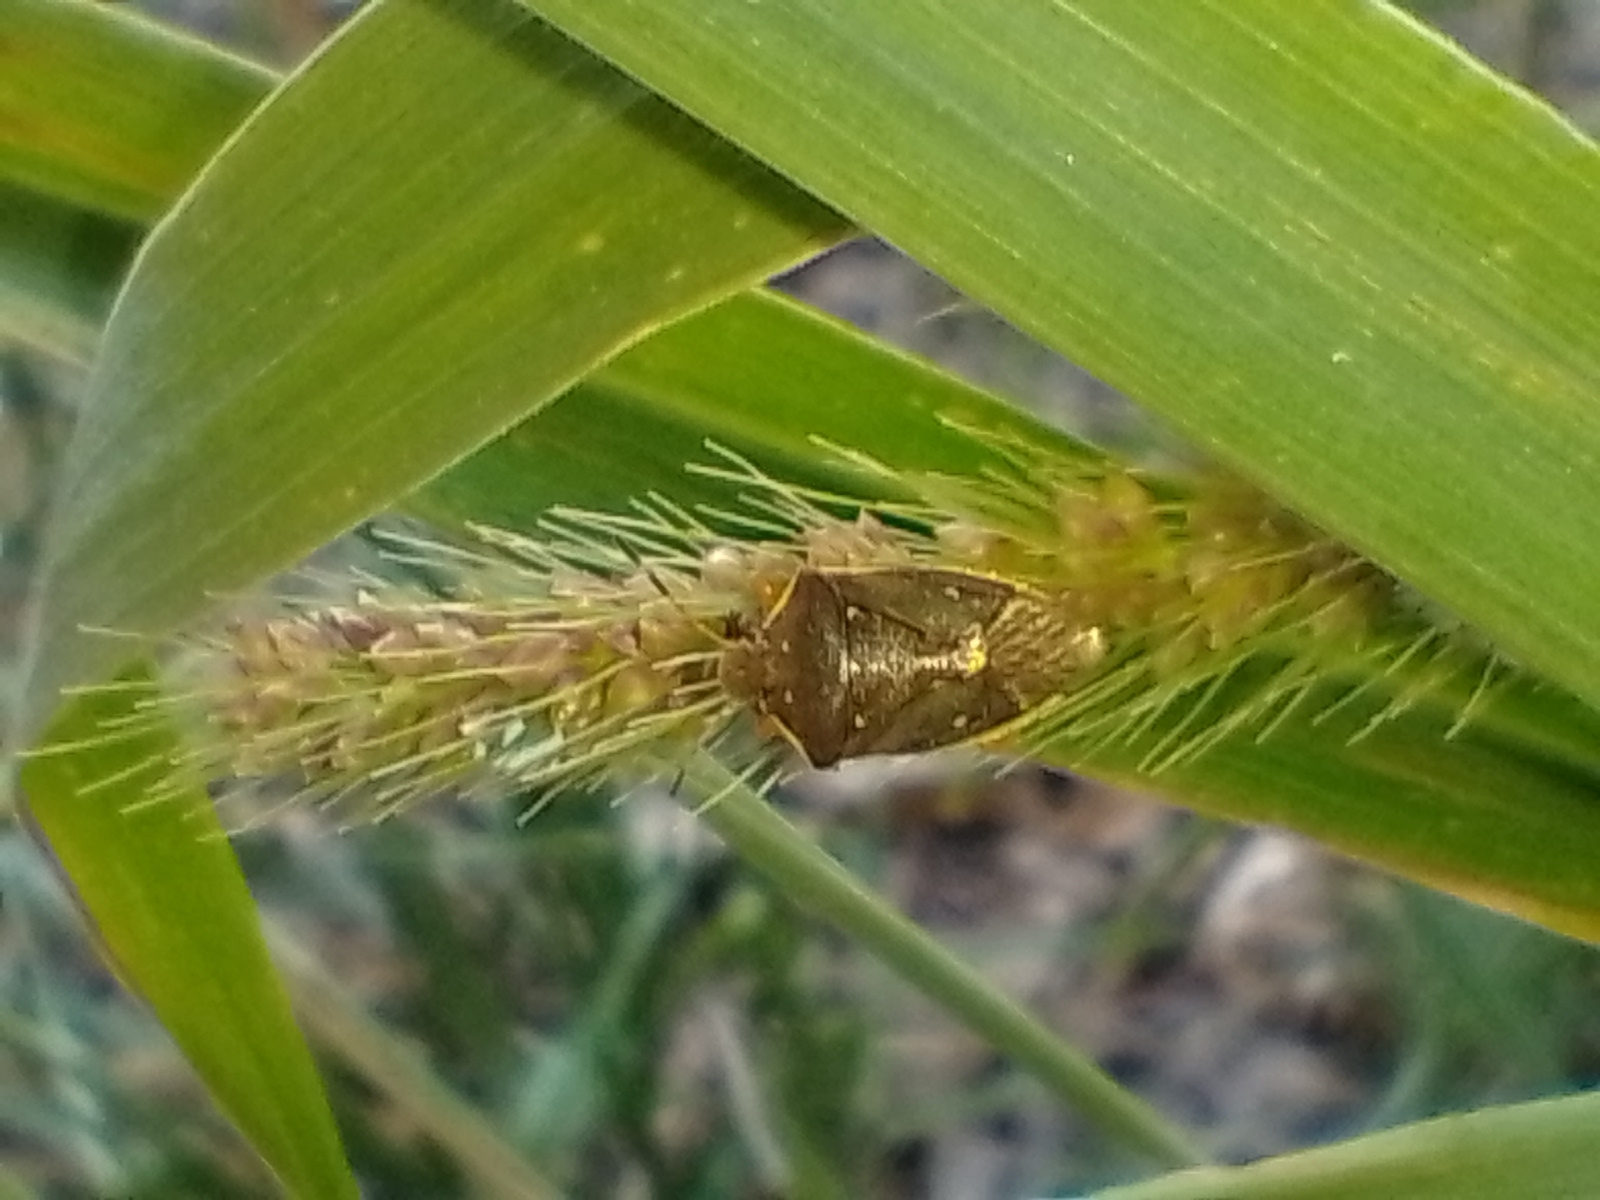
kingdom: Animalia
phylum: Arthropoda
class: Insecta
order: Hemiptera
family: Pentatomidae
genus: Mormidea
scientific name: Mormidea
